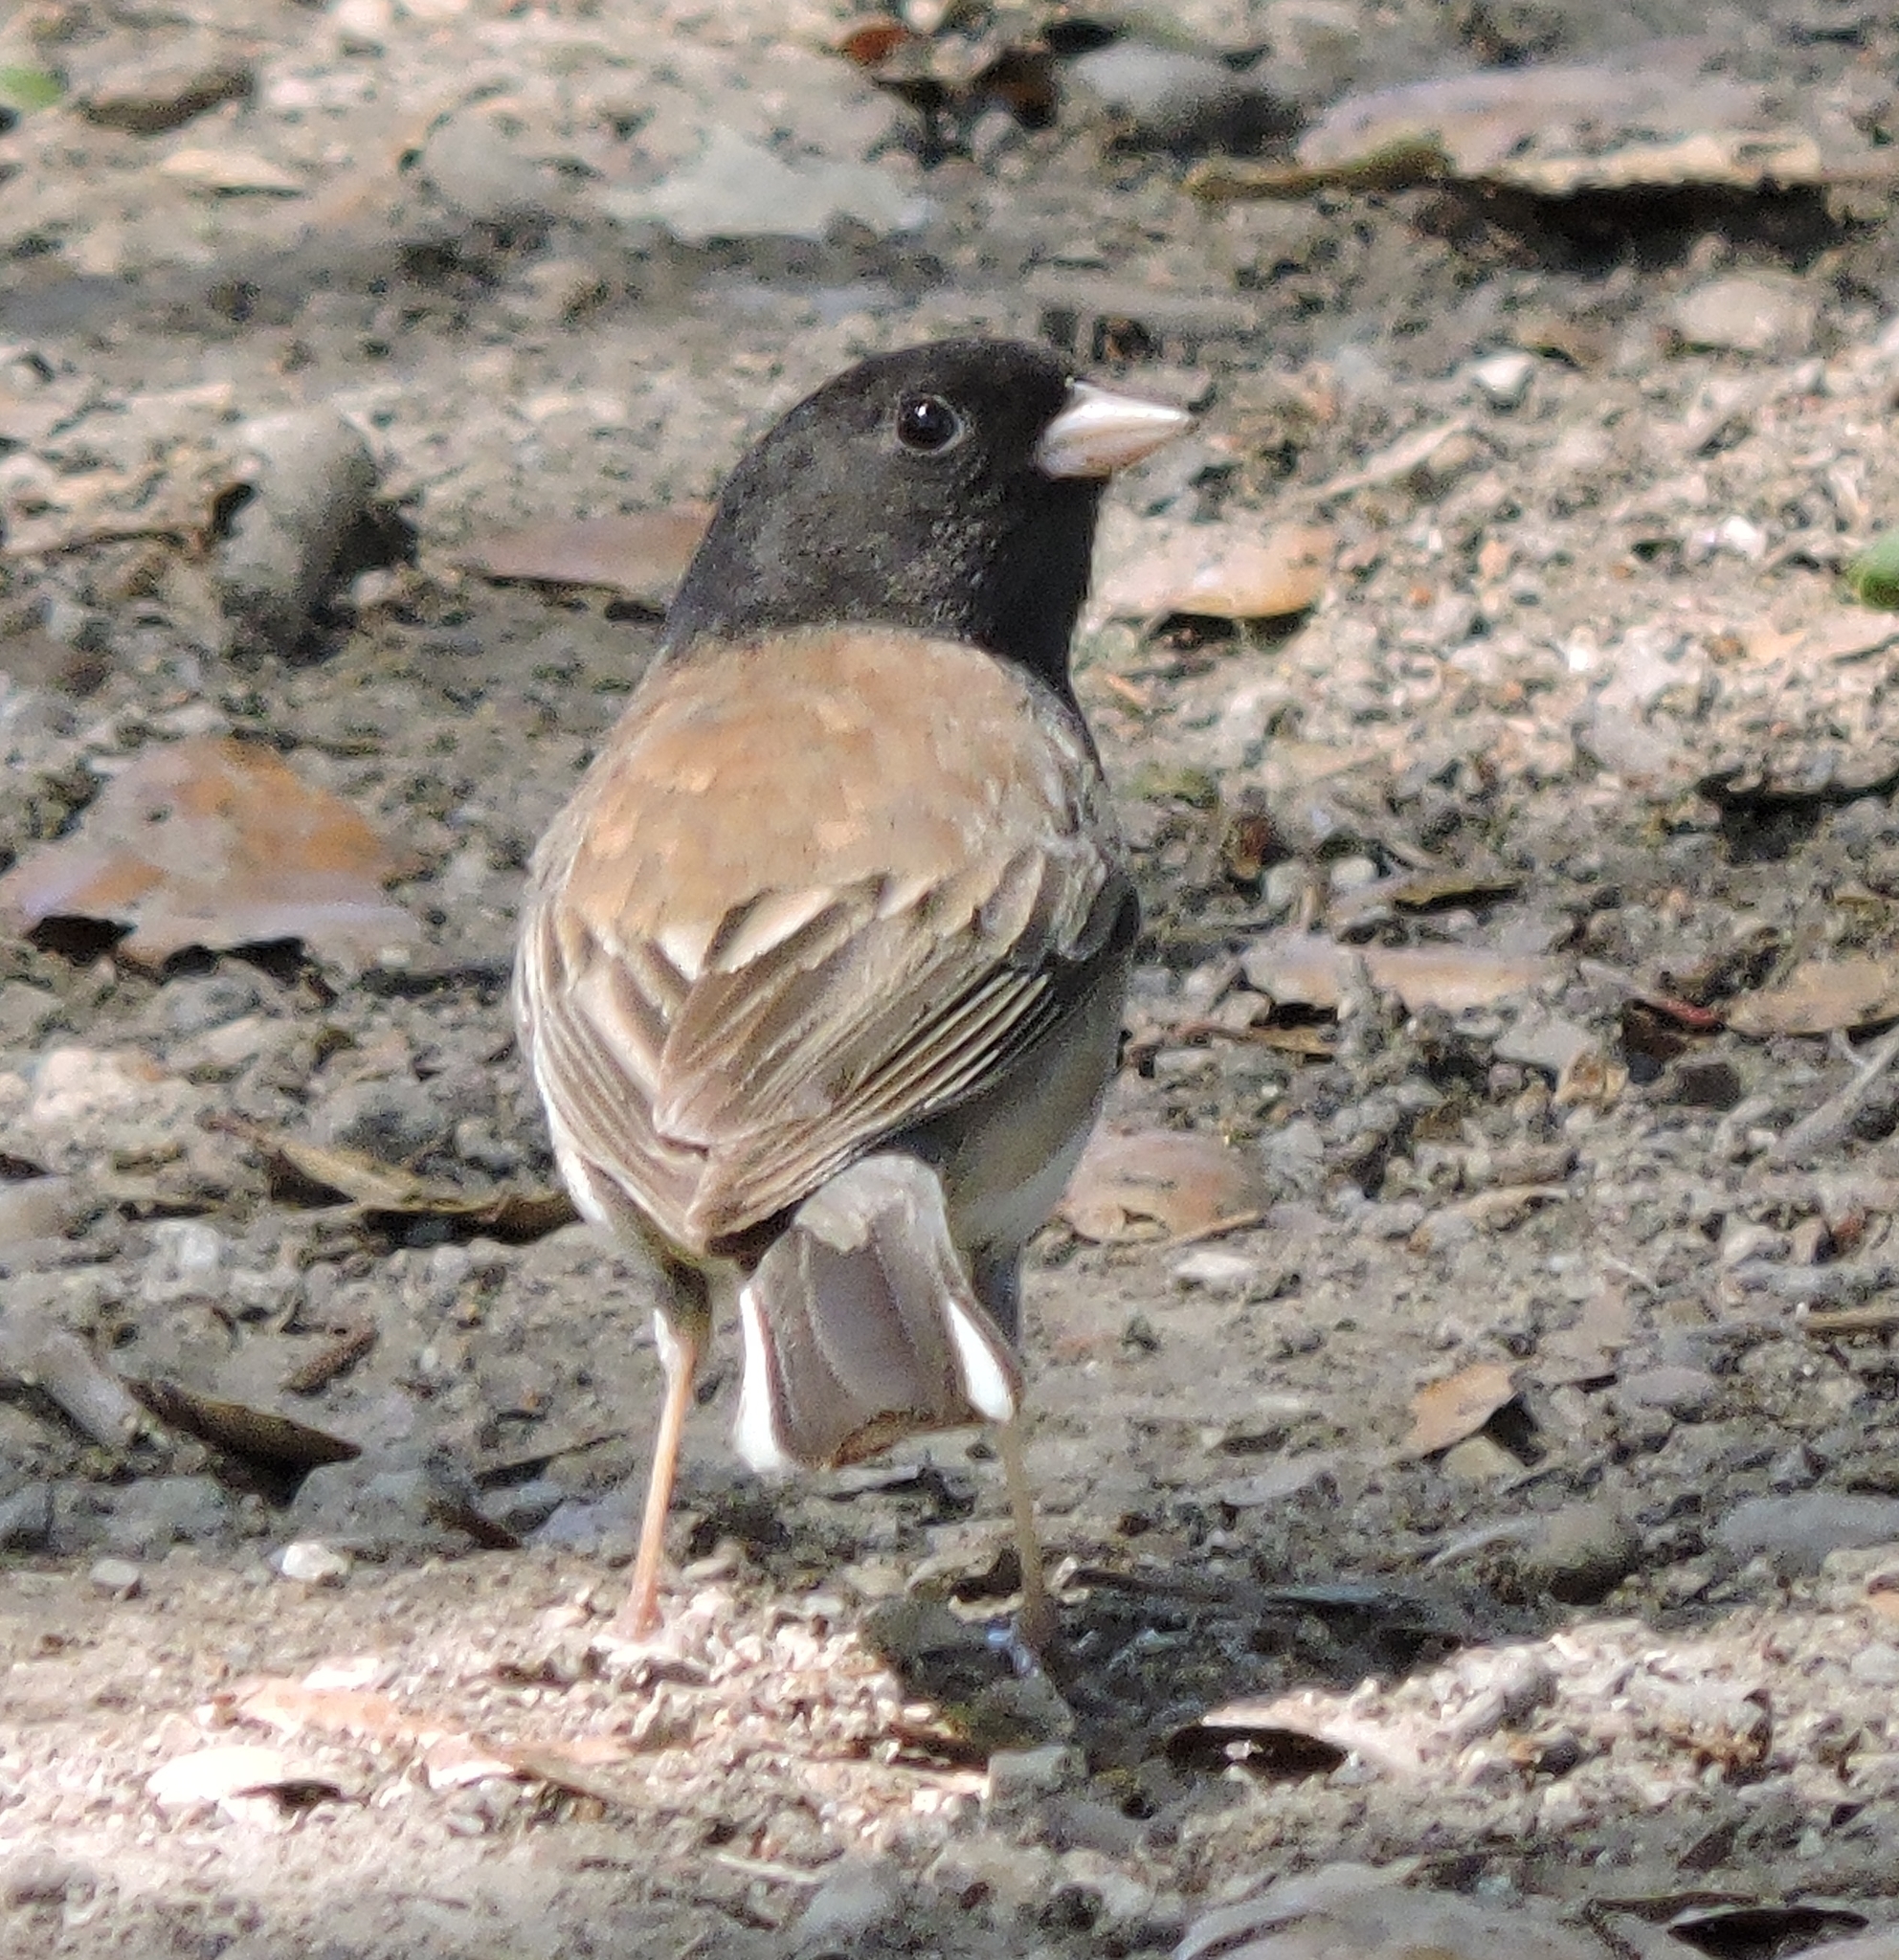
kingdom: Animalia
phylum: Chordata
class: Aves
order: Passeriformes
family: Passerellidae
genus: Junco
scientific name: Junco hyemalis
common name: Dark-eyed junco
